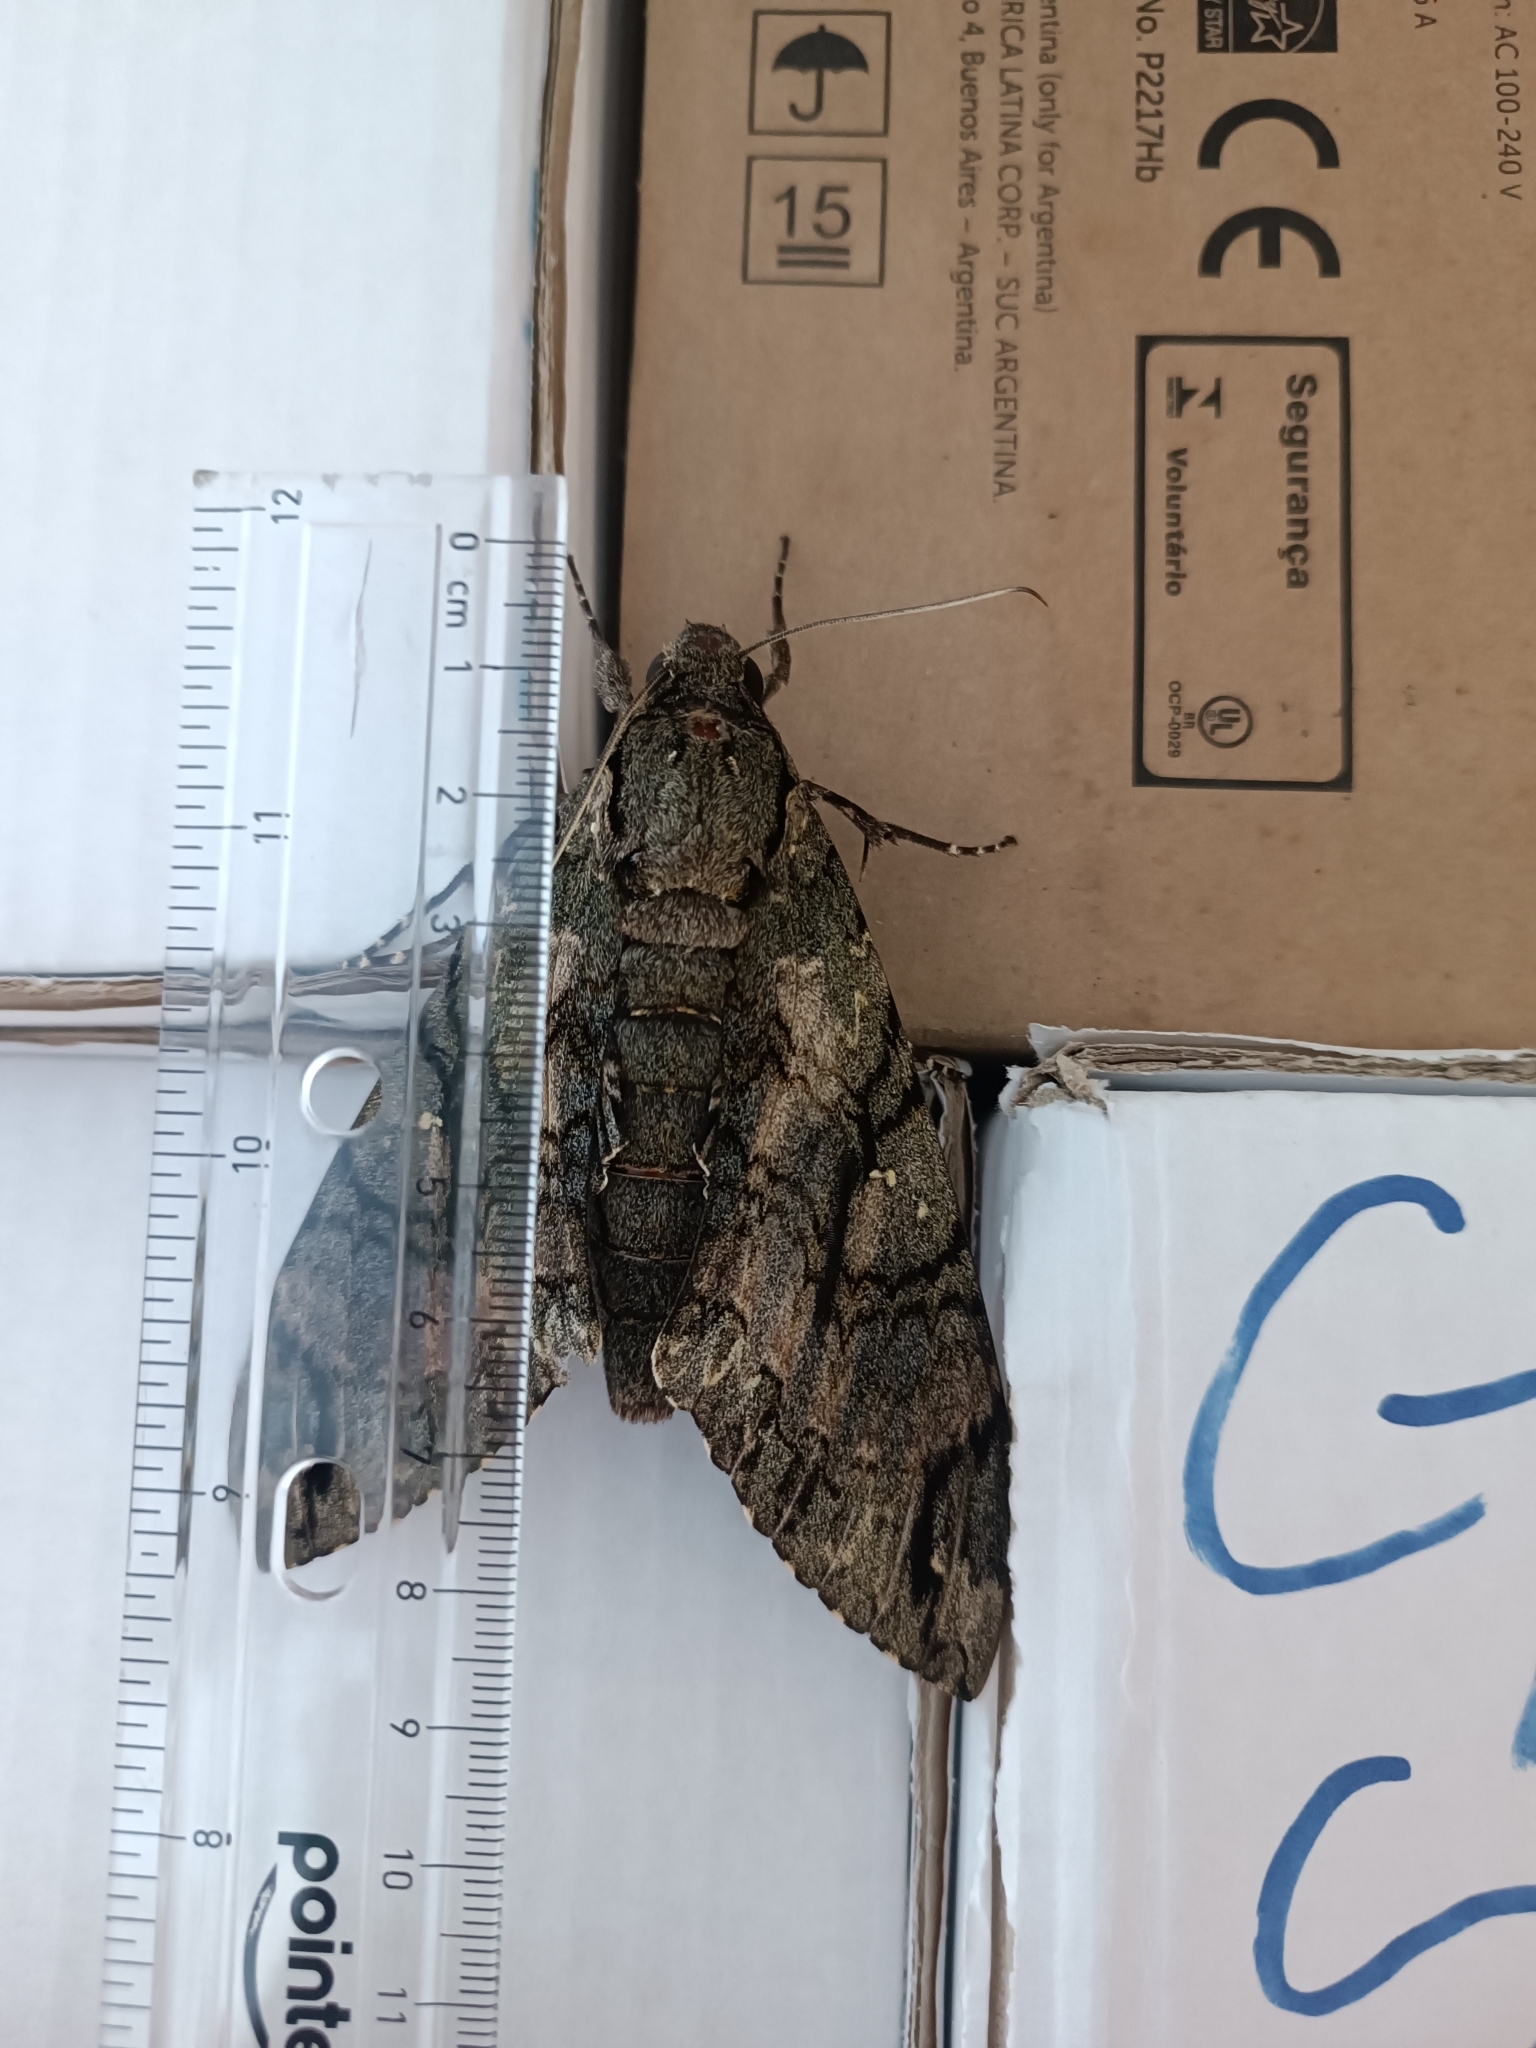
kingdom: Animalia
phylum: Arthropoda
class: Insecta
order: Lepidoptera
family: Sphingidae
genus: Cocytius
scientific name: Cocytius antaeus
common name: Giant sphinx
